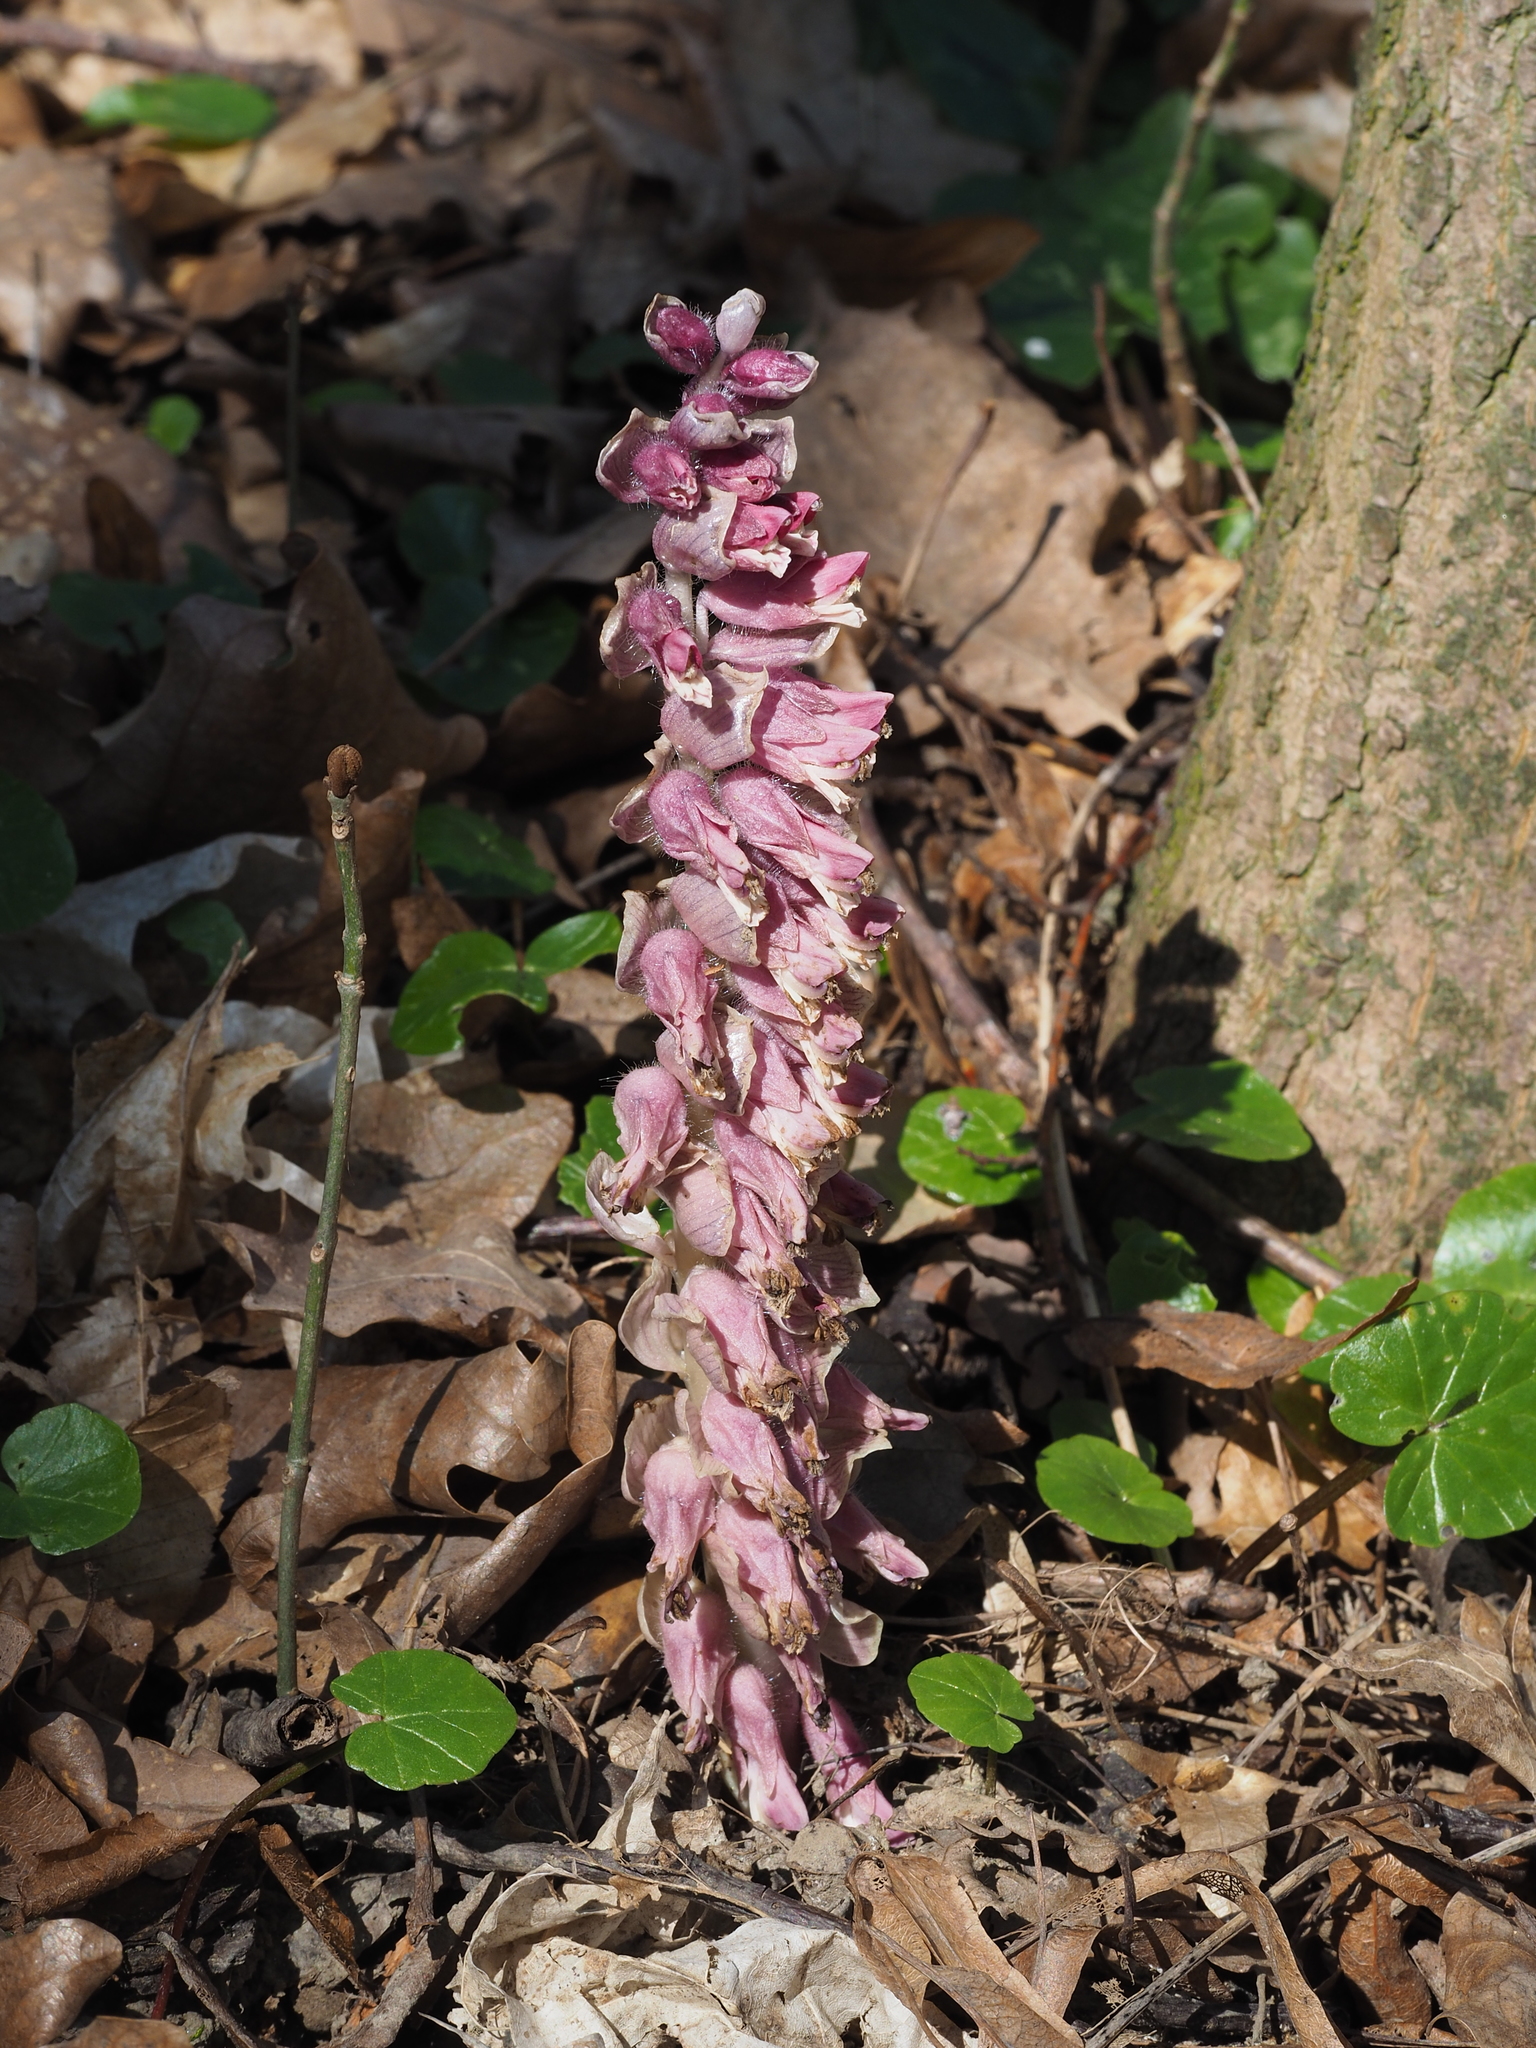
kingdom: Plantae
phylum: Tracheophyta
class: Magnoliopsida
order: Lamiales
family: Orobanchaceae
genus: Lathraea
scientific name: Lathraea squamaria
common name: Toothwort
